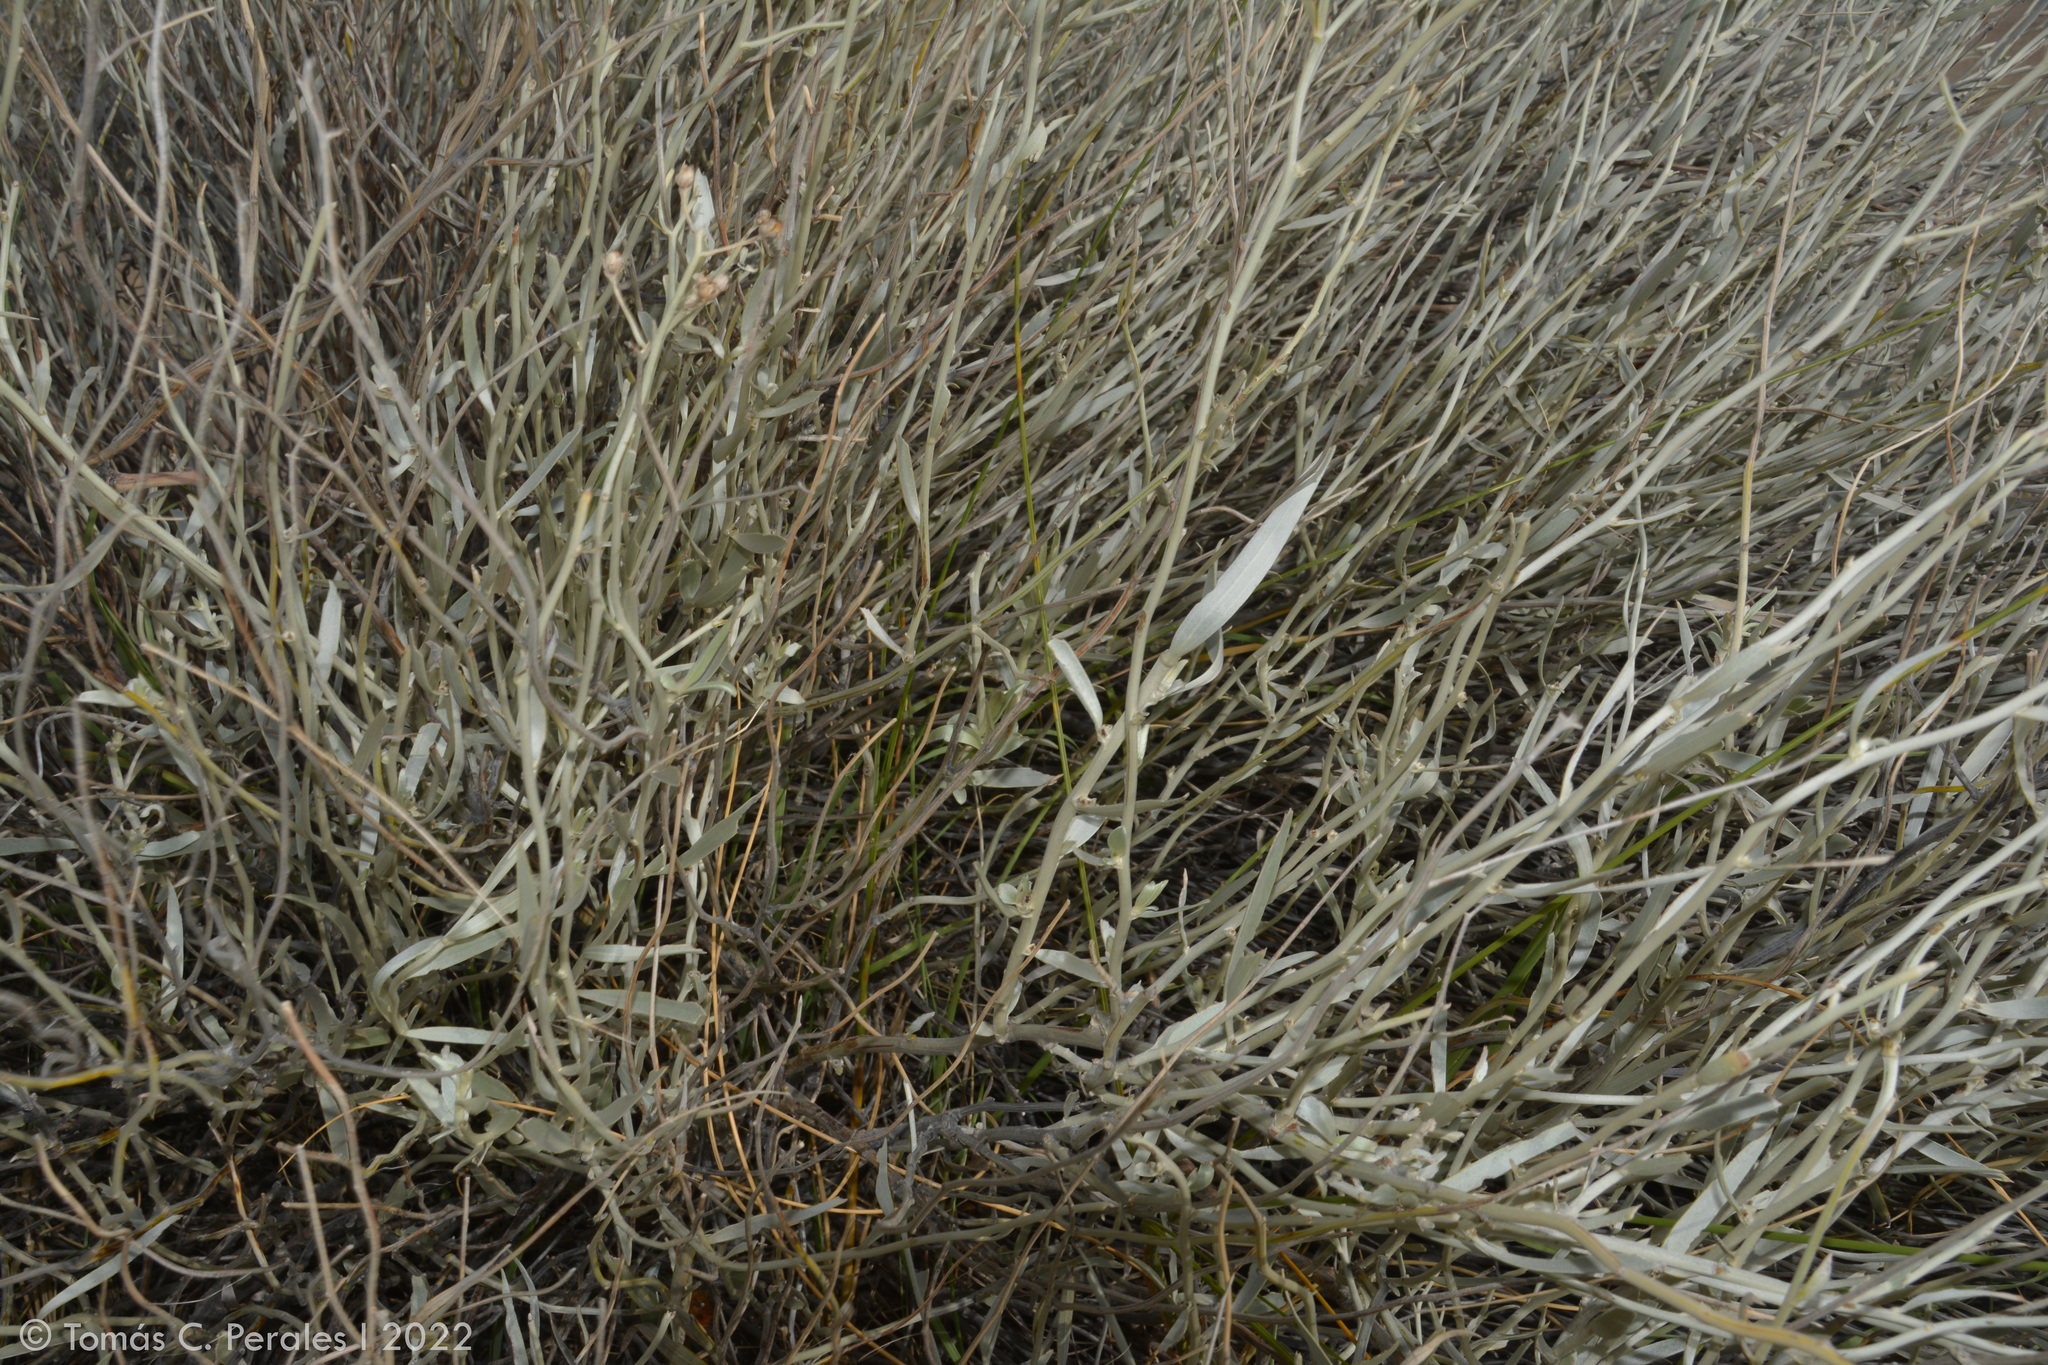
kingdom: Plantae
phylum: Tracheophyta
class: Magnoliopsida
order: Asterales
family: Asteraceae
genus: Hyalis
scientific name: Hyalis argentea
